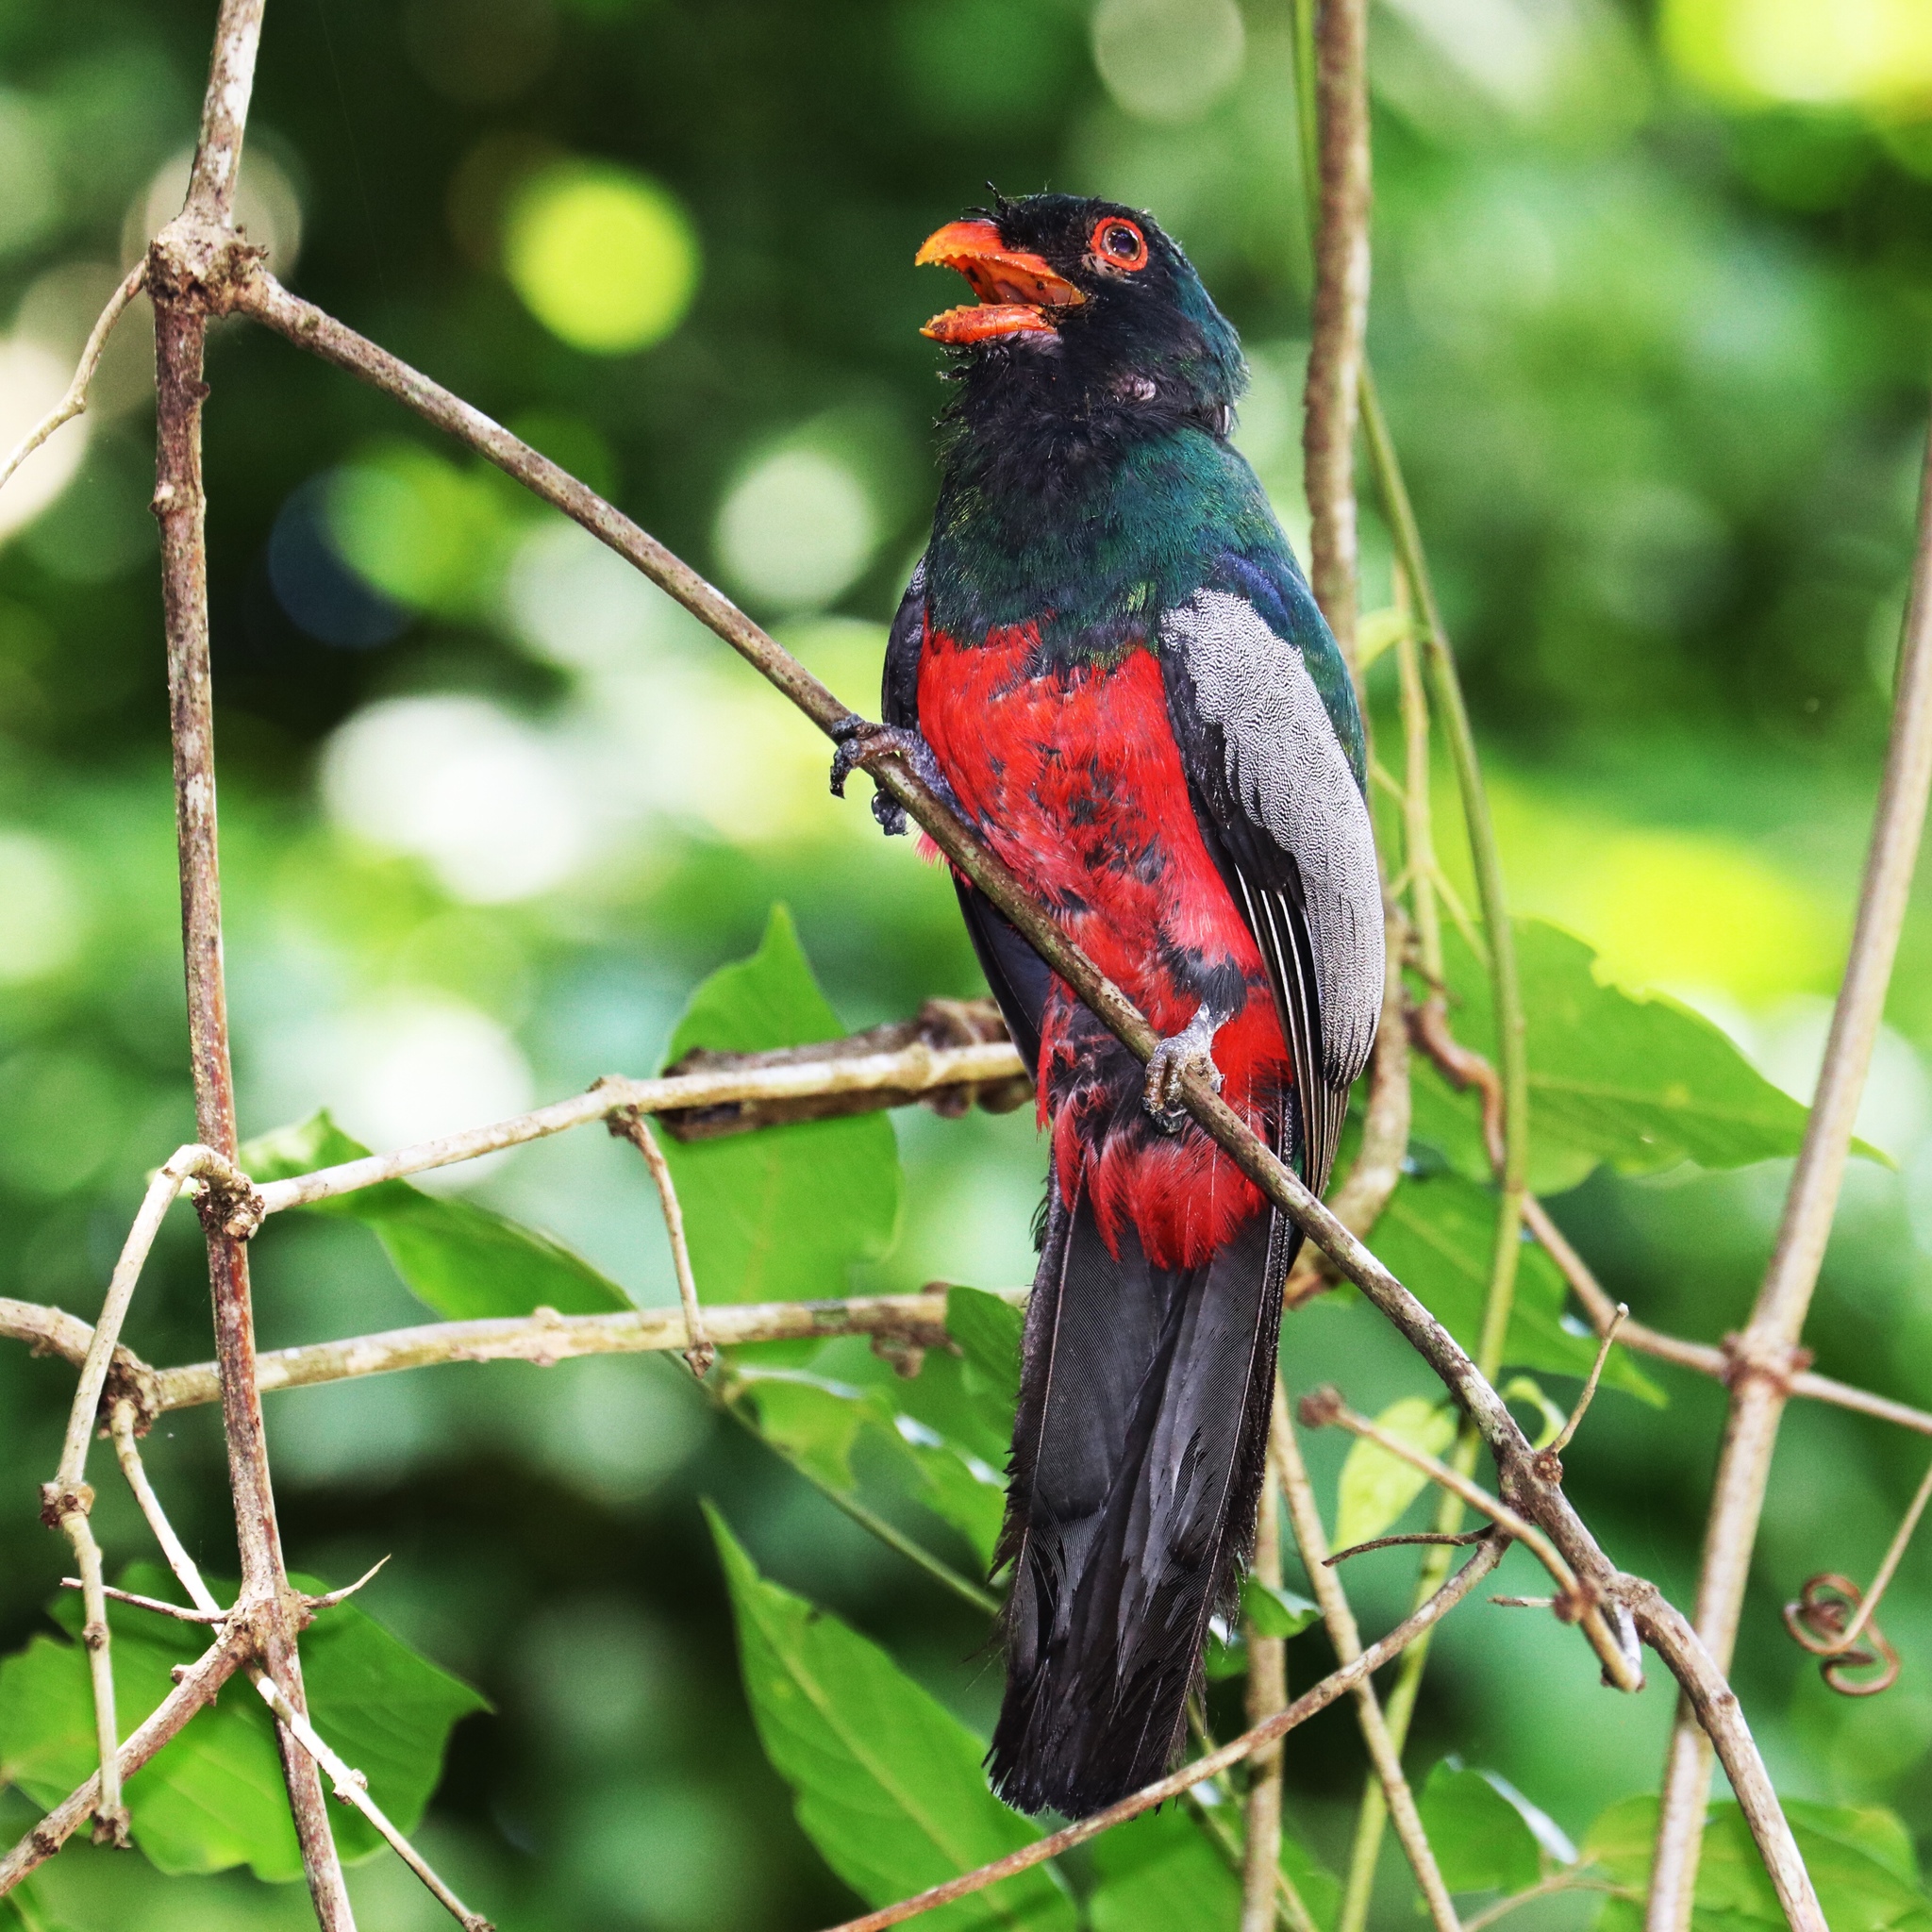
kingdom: Animalia
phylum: Chordata
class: Aves
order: Trogoniformes
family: Trogonidae
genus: Trogon
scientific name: Trogon massena
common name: Slaty-tailed trogon
